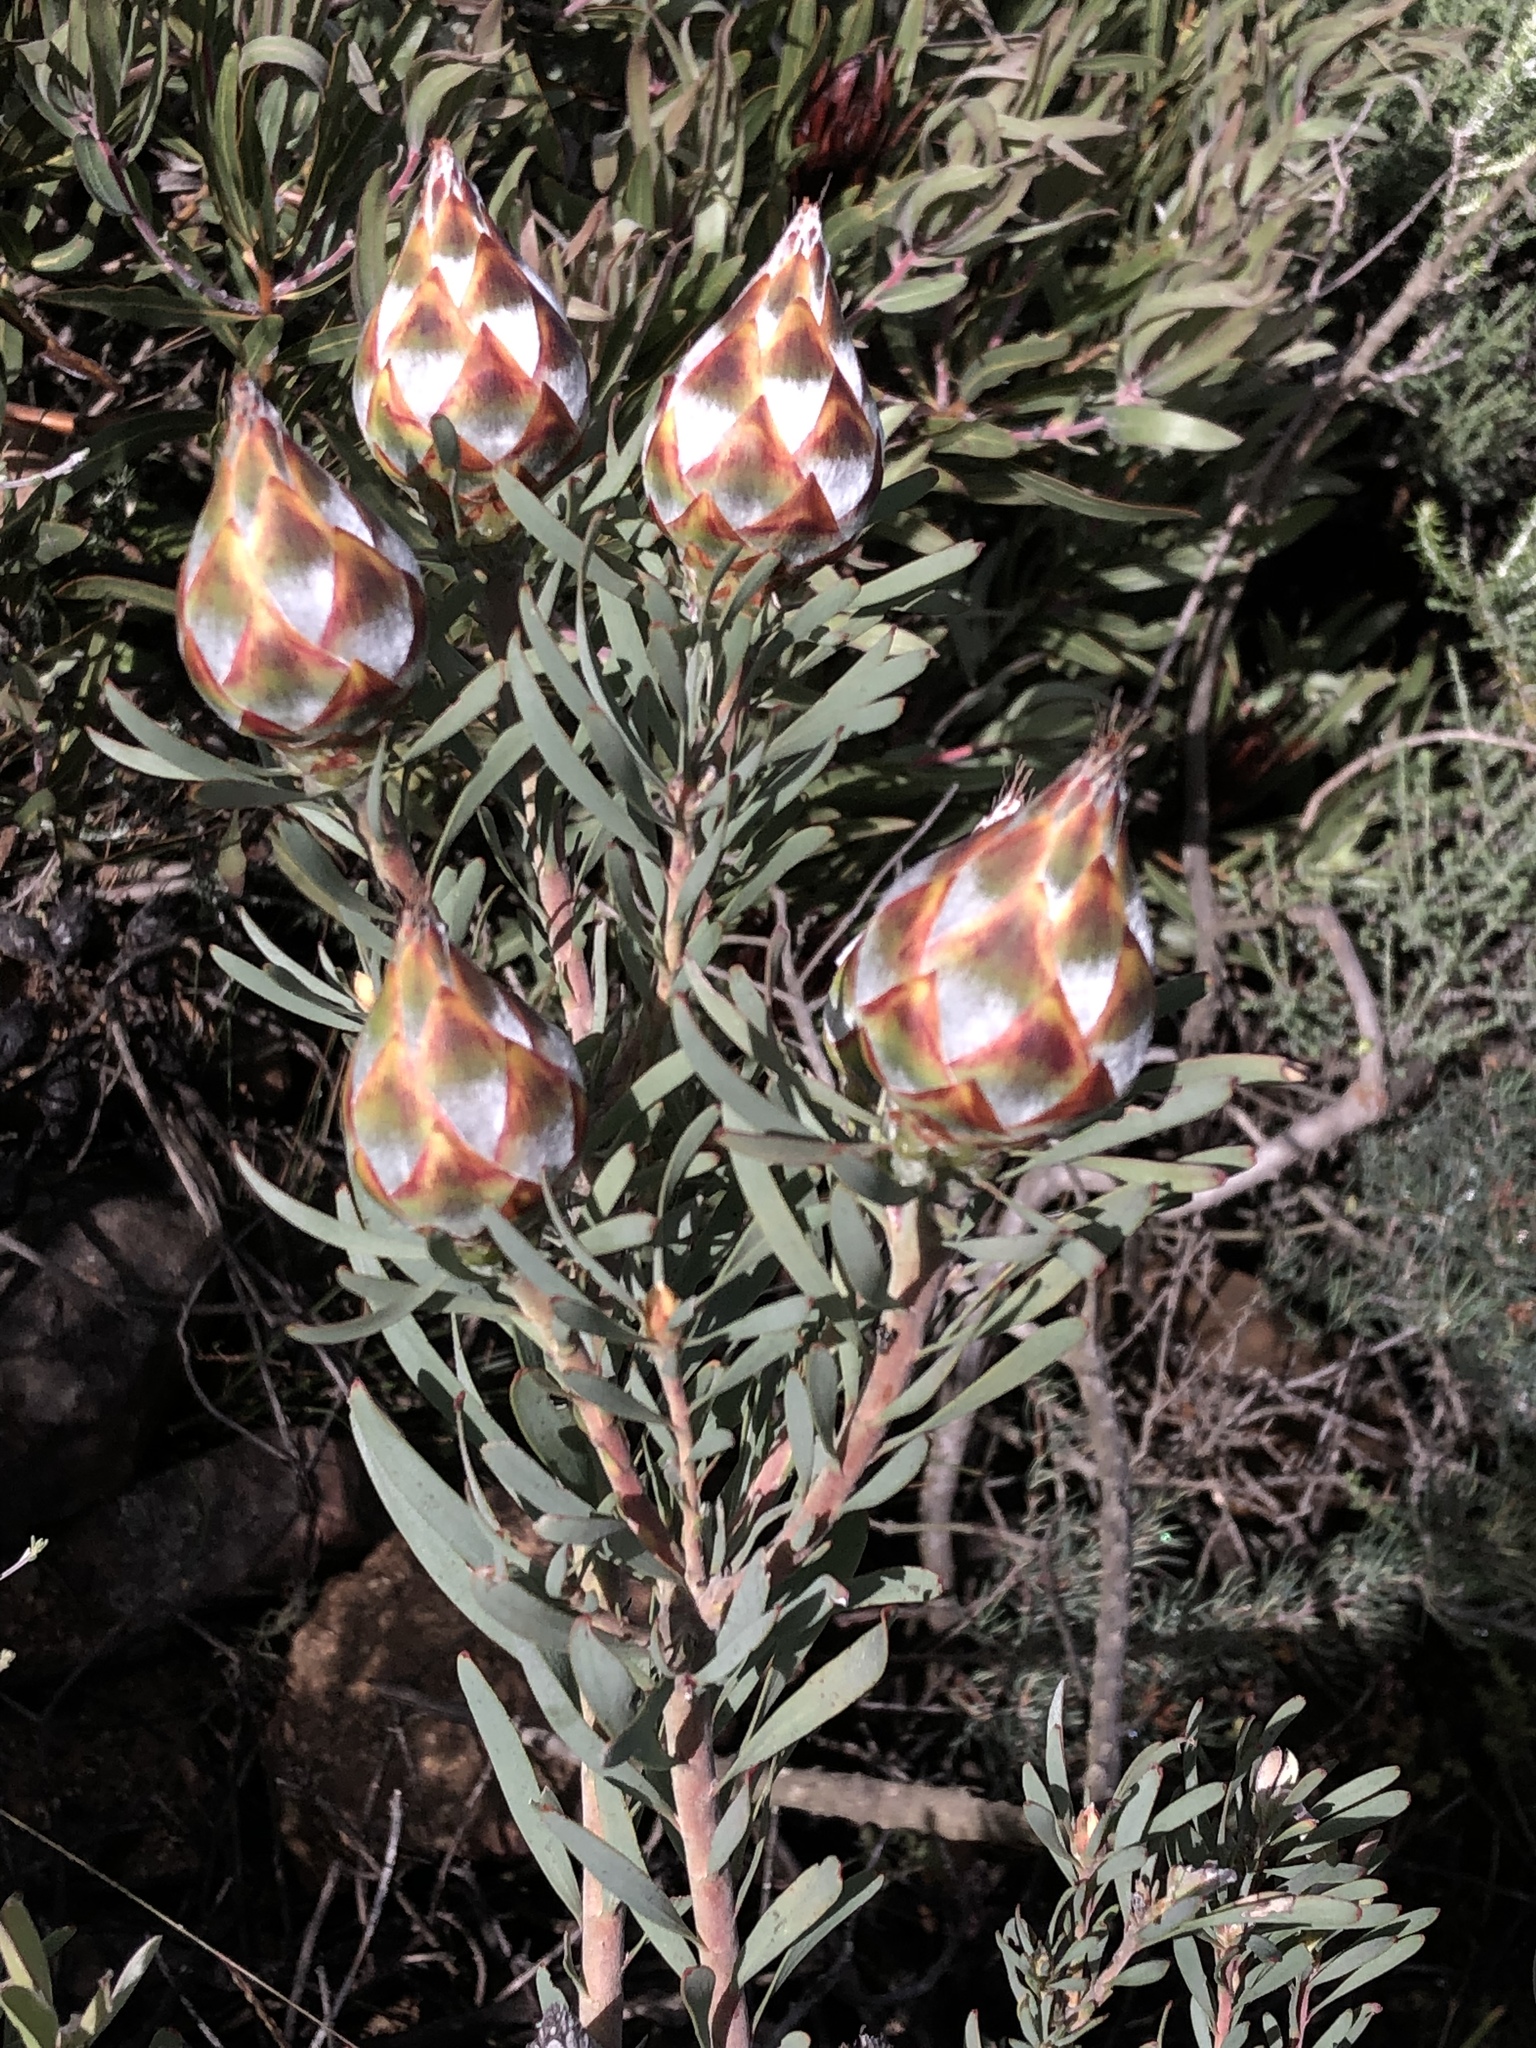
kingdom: Plantae
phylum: Tracheophyta
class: Magnoliopsida
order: Proteales
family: Proteaceae
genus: Leucadendron
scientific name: Leucadendron rubrum
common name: Spinning top
